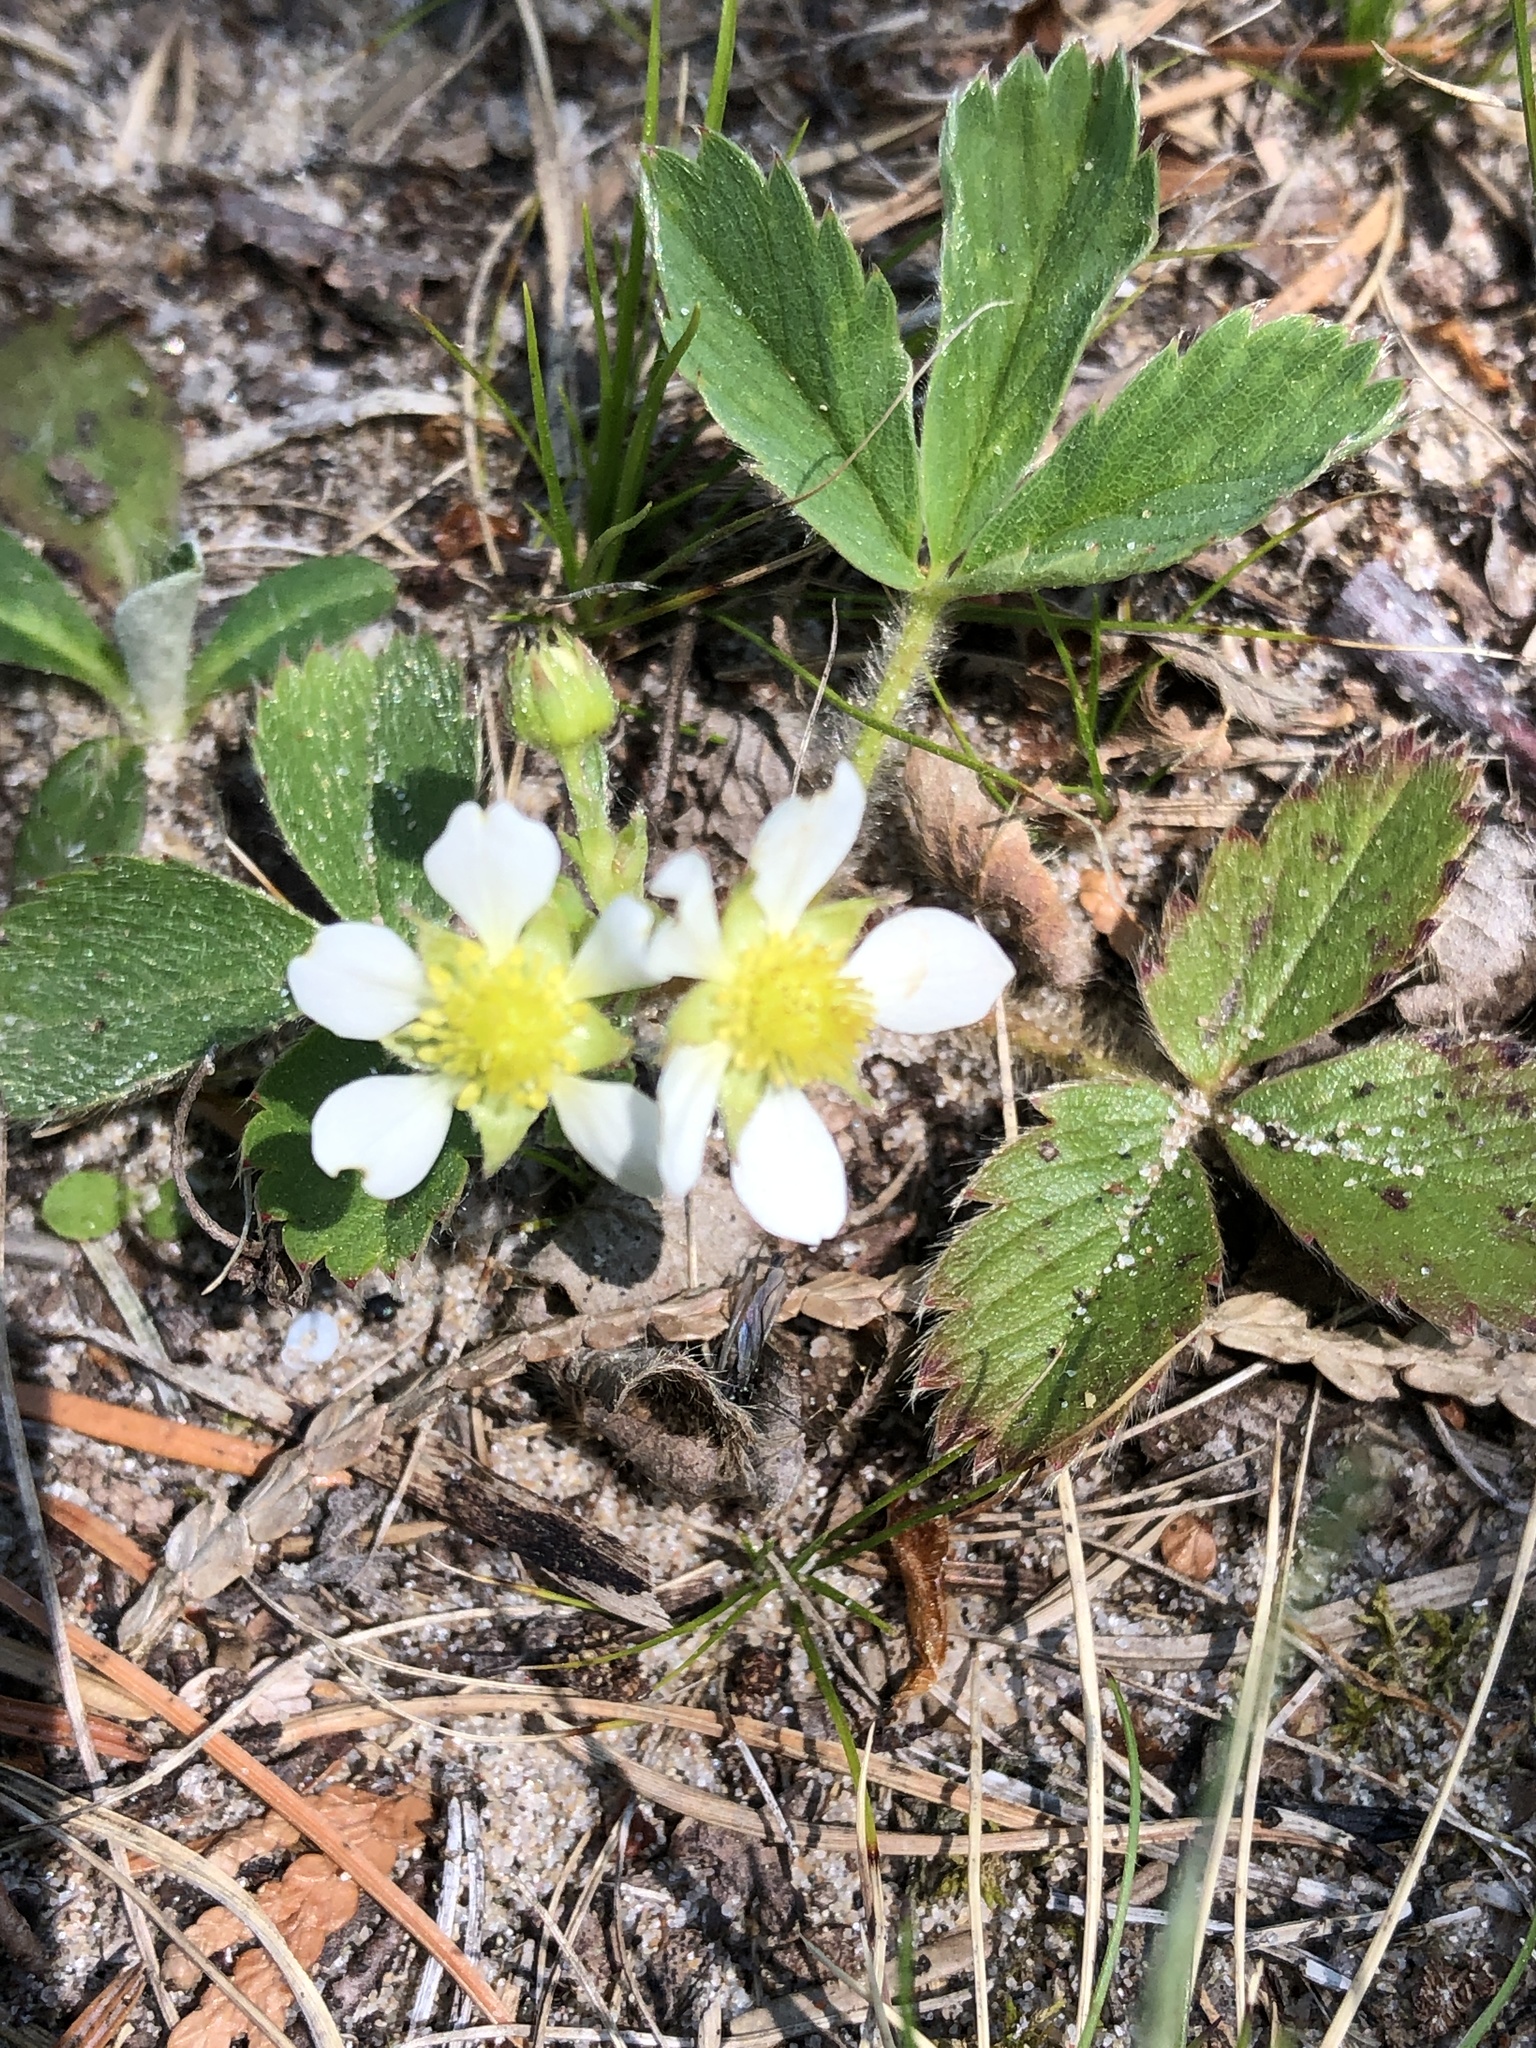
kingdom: Plantae
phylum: Tracheophyta
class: Magnoliopsida
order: Rosales
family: Rosaceae
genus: Fragaria
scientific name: Fragaria virginiana
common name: Thickleaved wild strawberry
